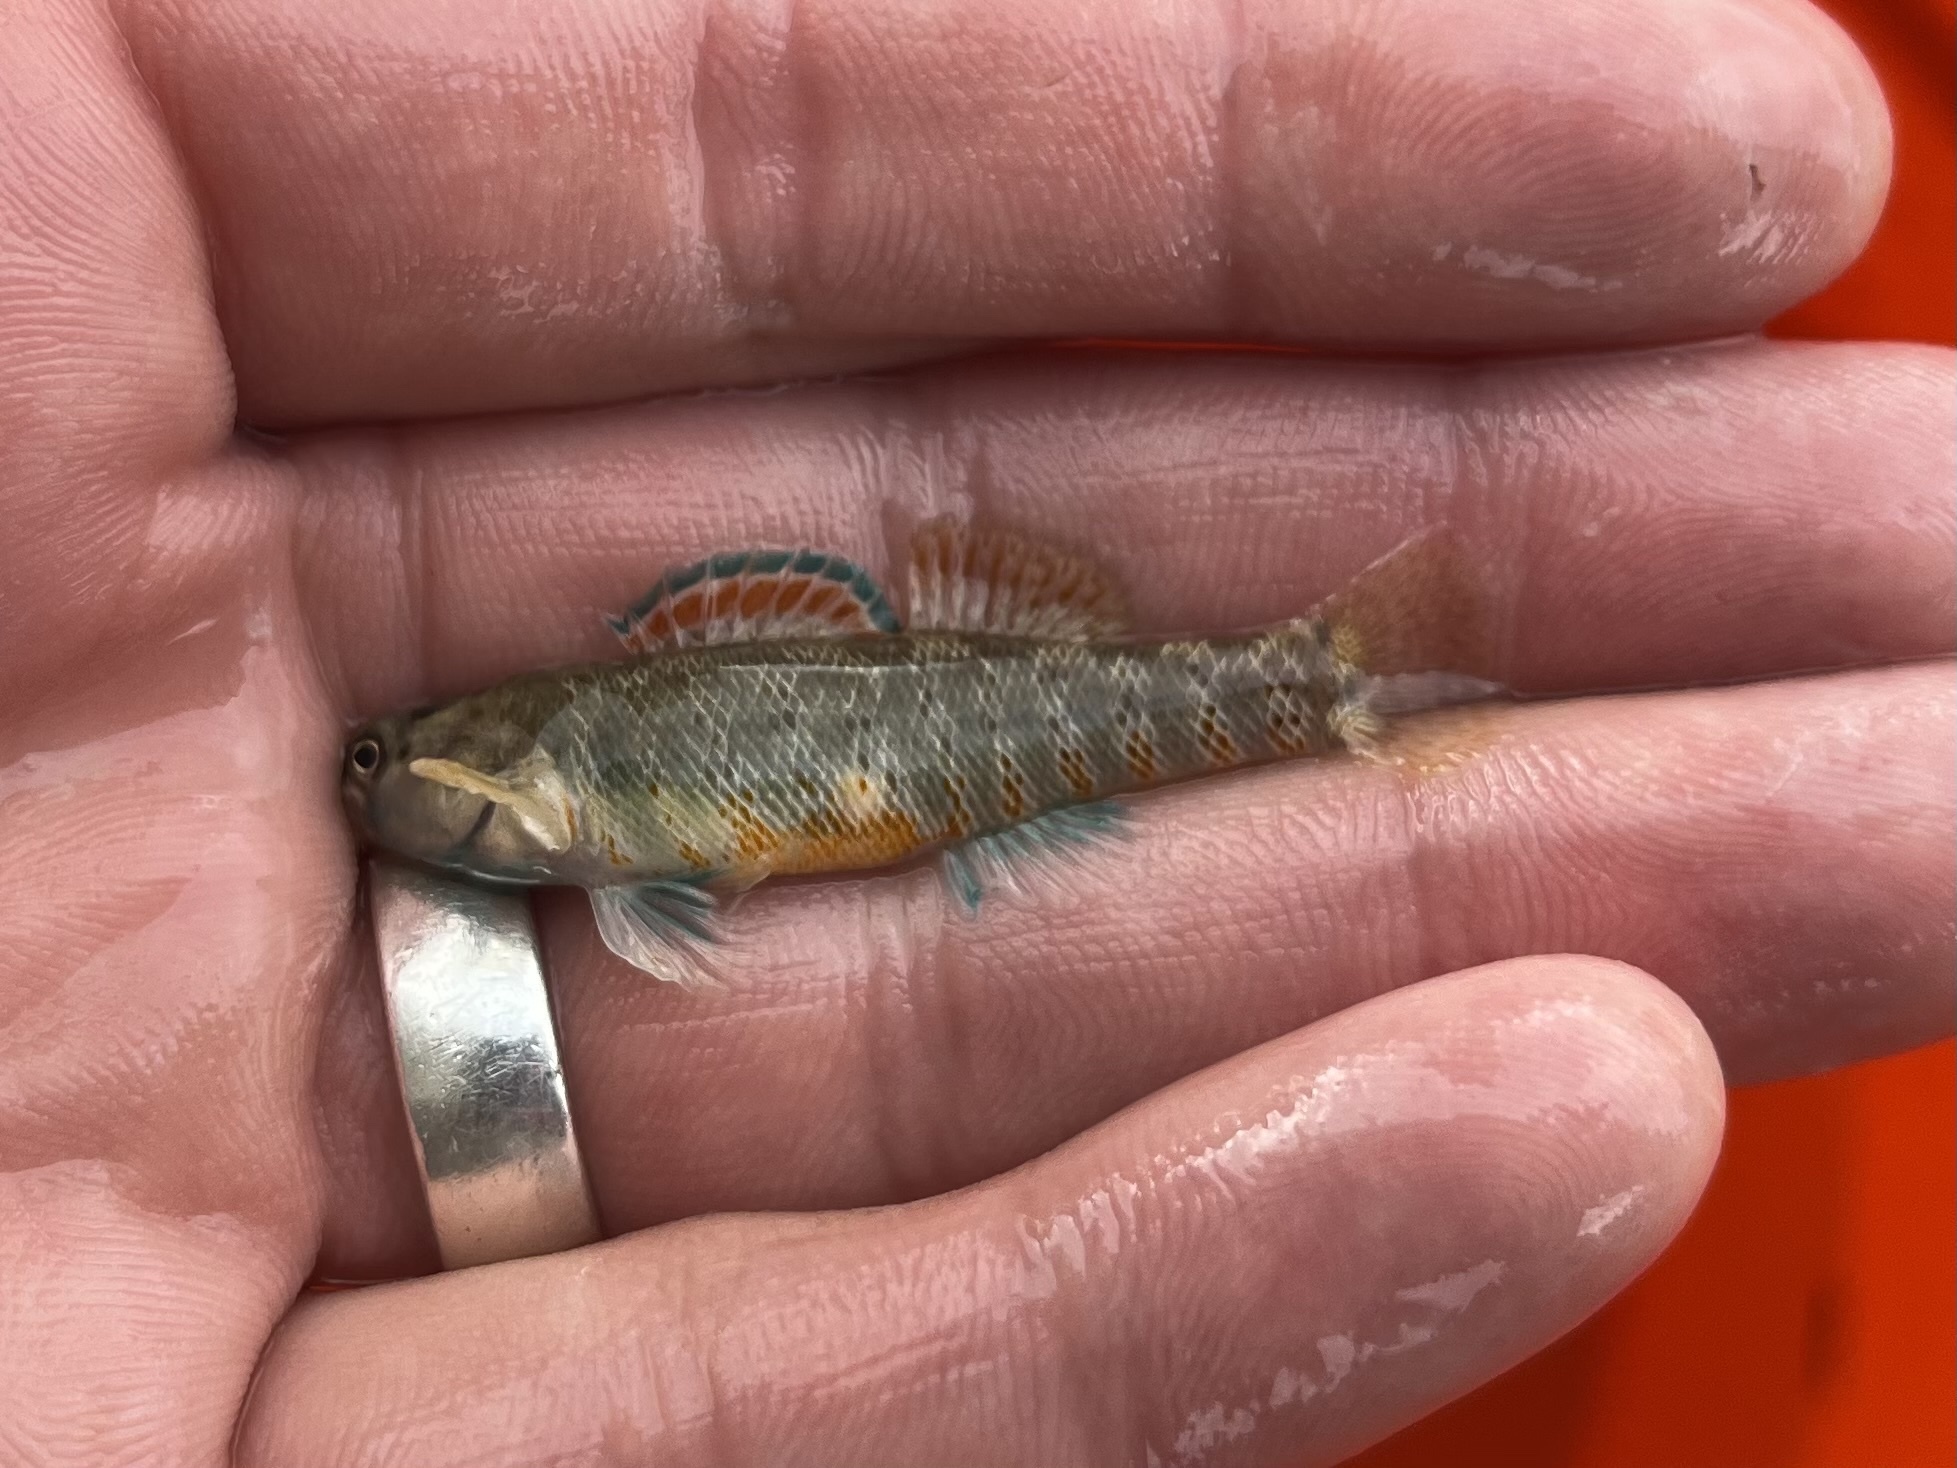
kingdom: Animalia
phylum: Chordata
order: Perciformes
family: Percidae
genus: Etheostoma
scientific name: Etheostoma lepidum
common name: Greenthroat darter
